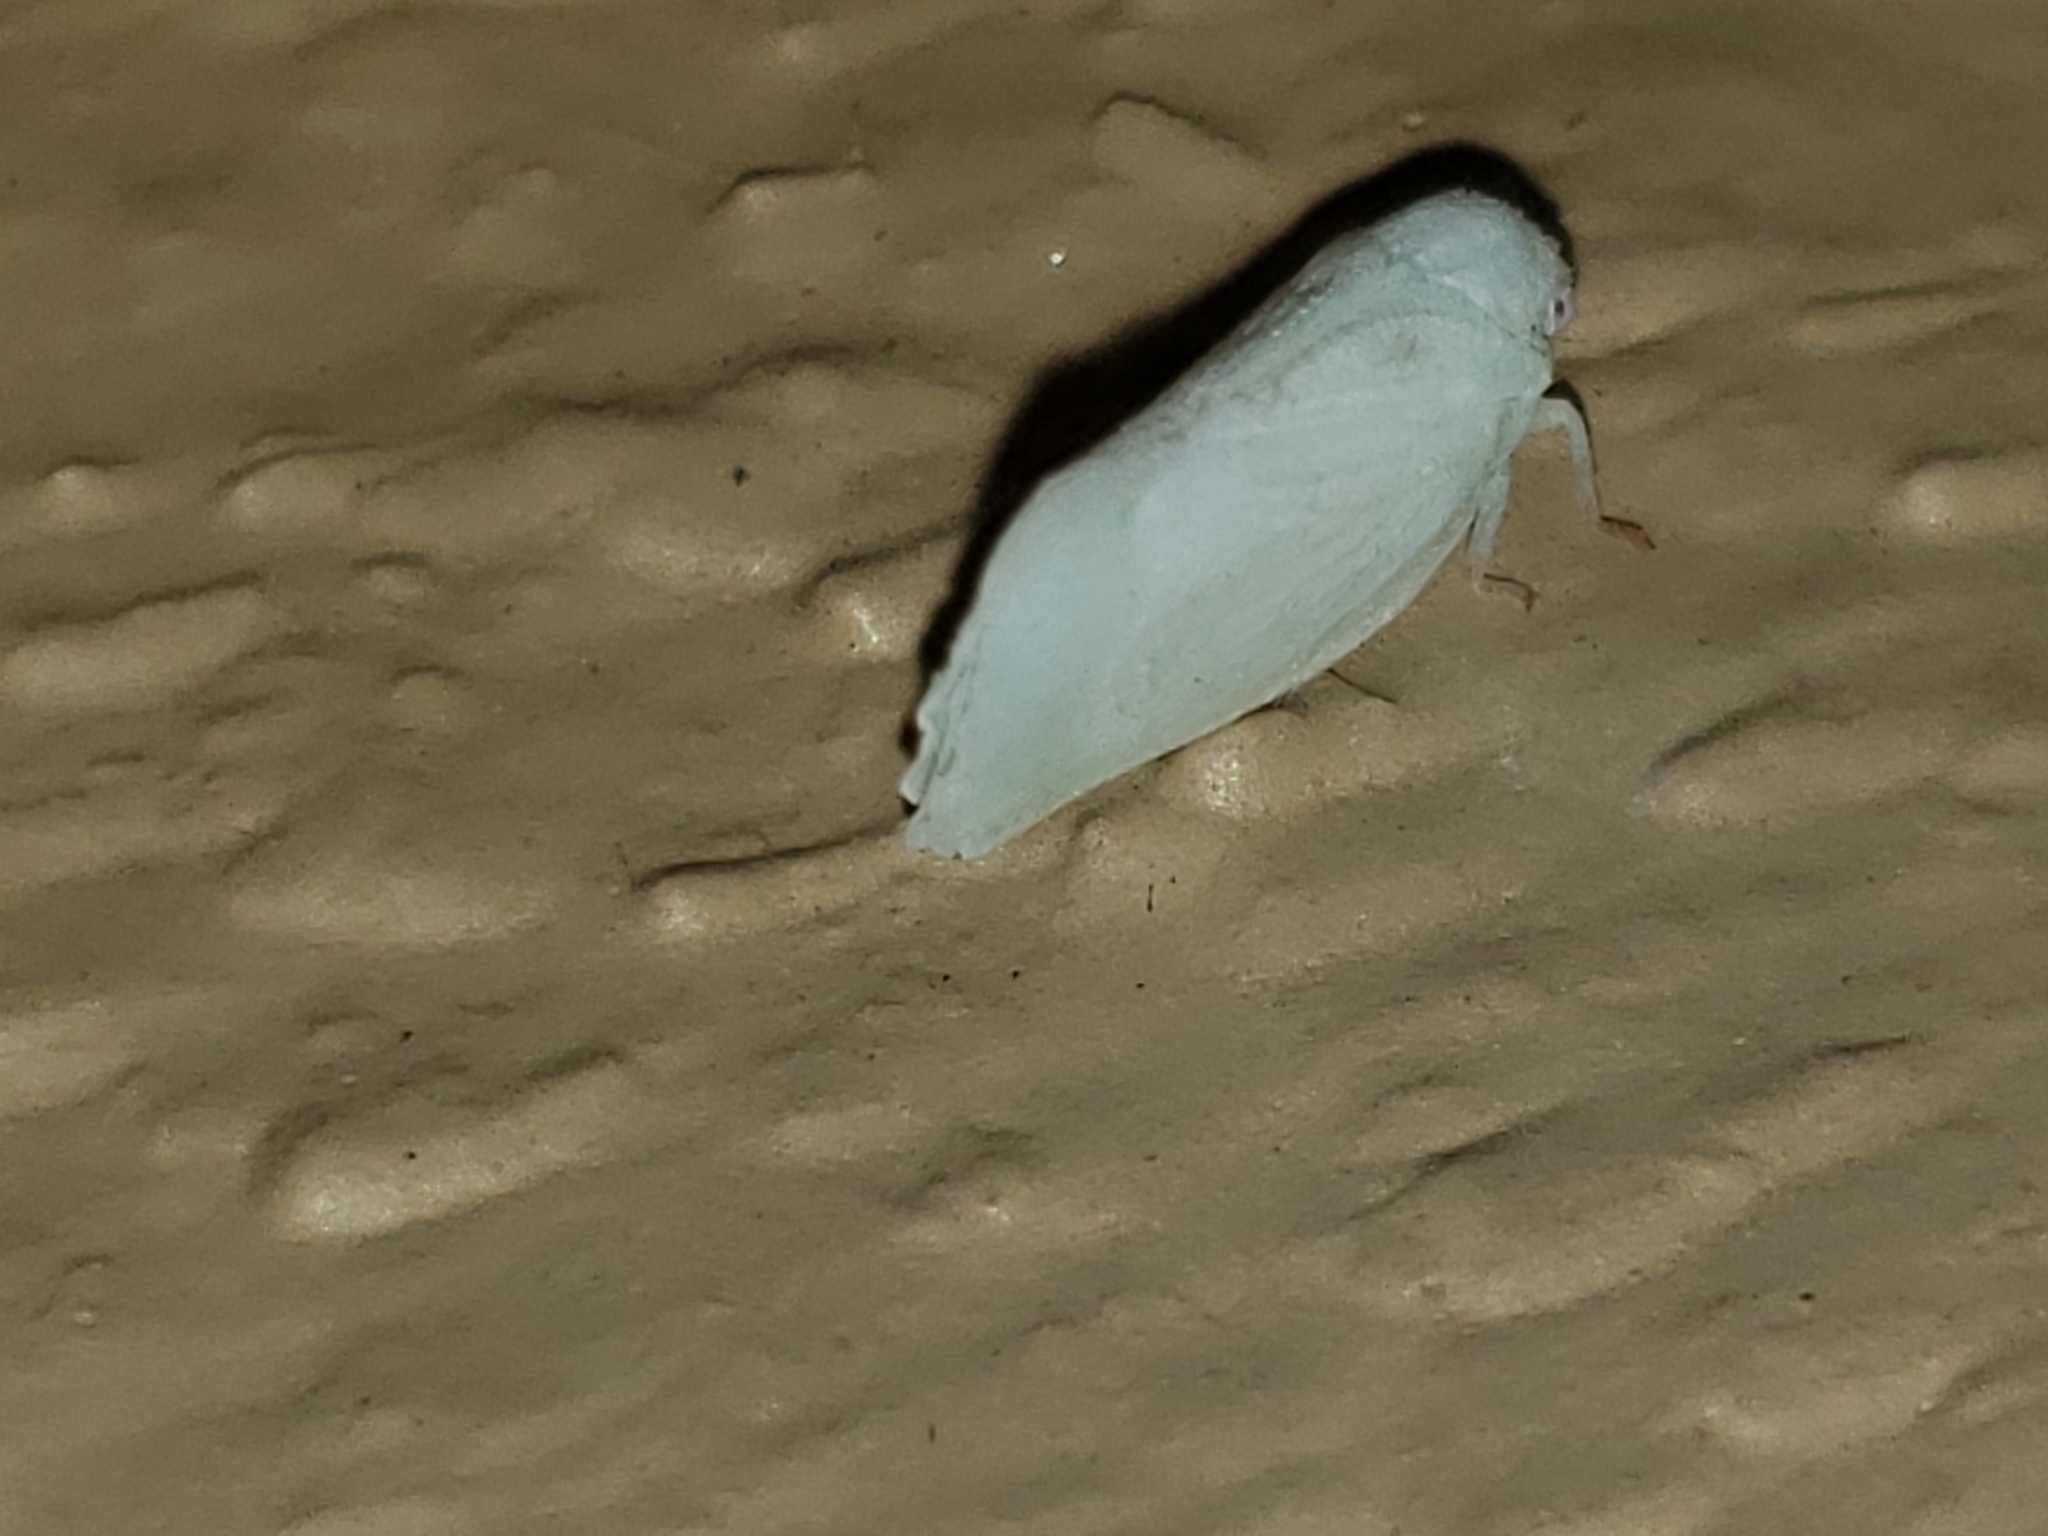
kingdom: Animalia
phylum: Arthropoda
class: Insecta
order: Hemiptera
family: Flatidae
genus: Flatormenis
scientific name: Flatormenis proxima
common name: Northern flatid planthopper
